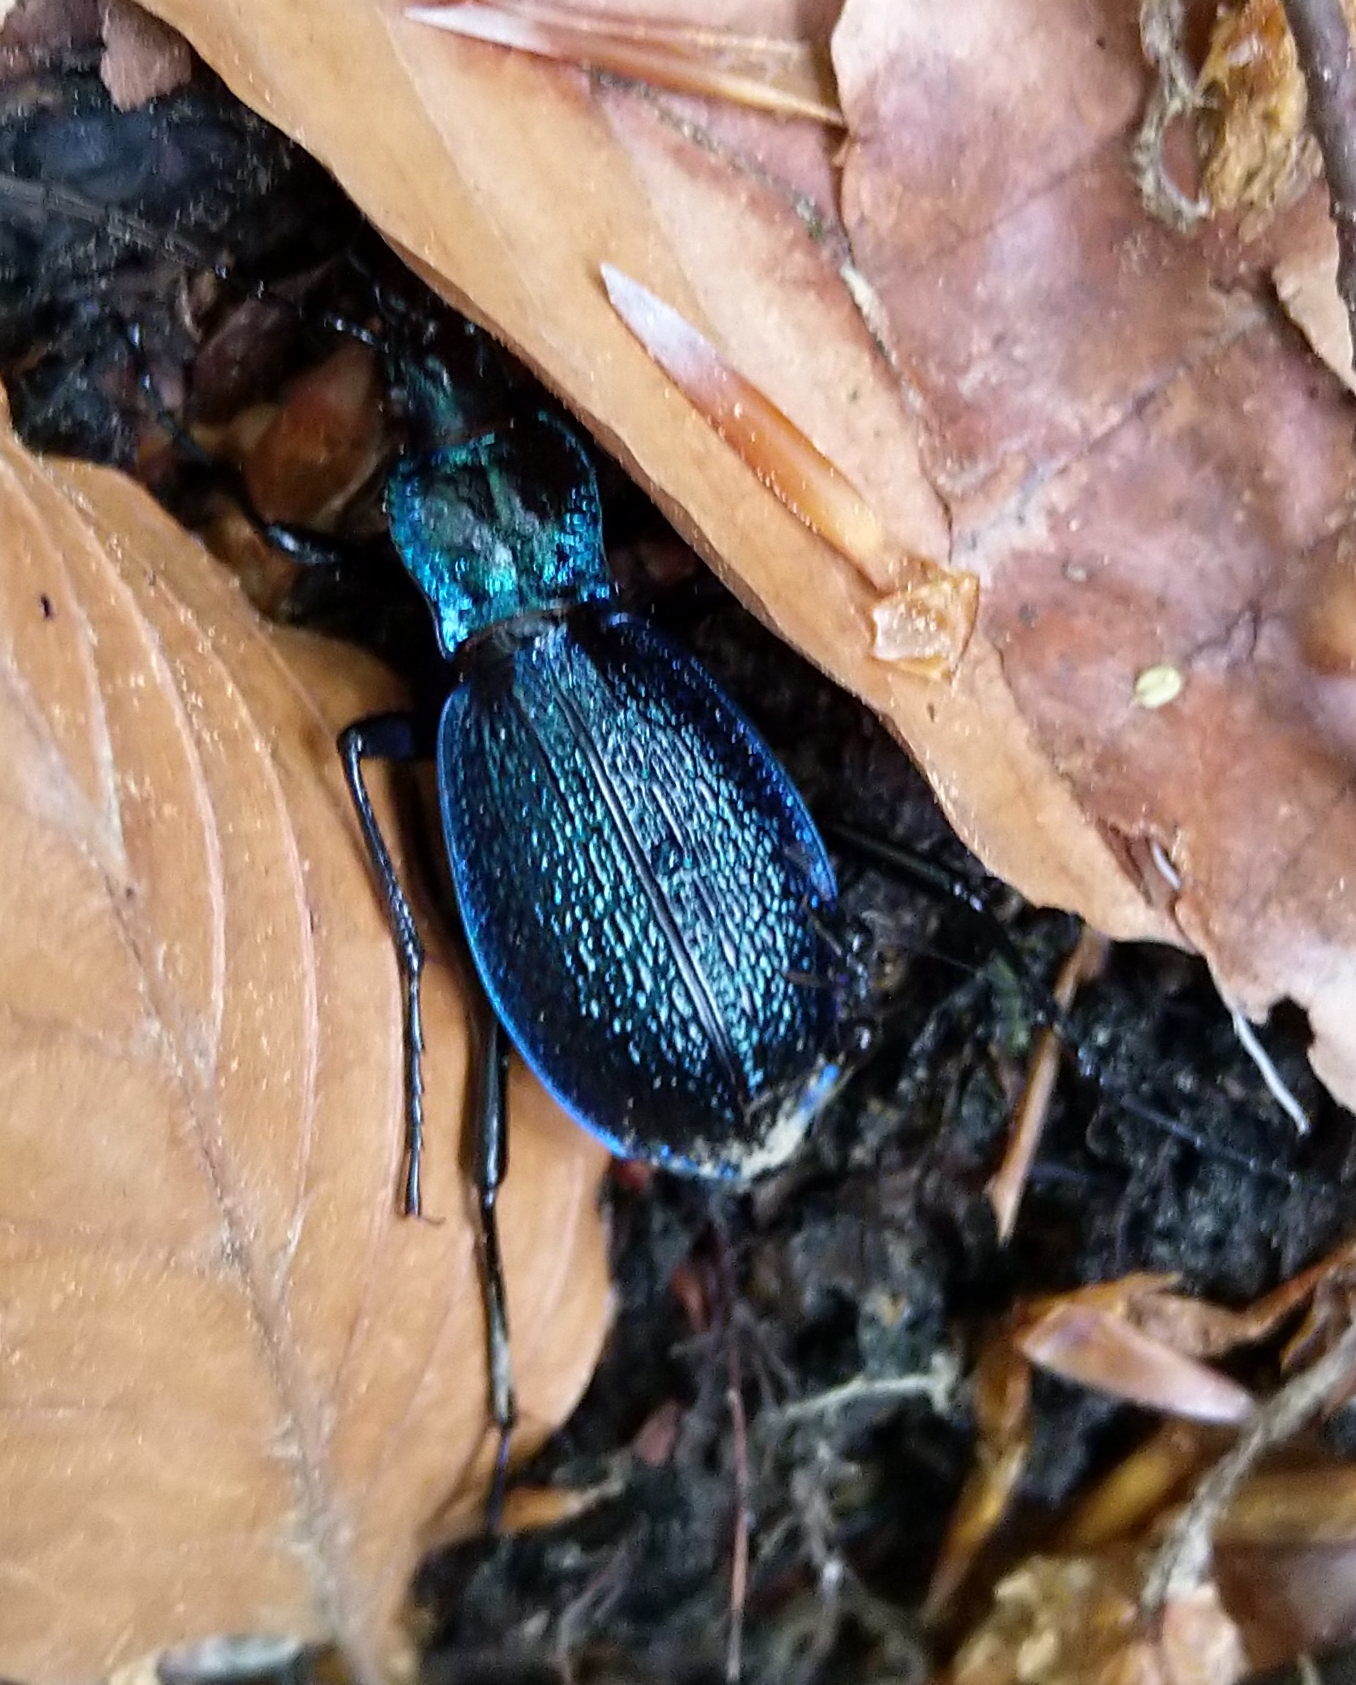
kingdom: Animalia
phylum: Arthropoda
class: Insecta
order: Coleoptera
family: Carabidae
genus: Carabus
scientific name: Carabus intricatus
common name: Blue ground beetle
